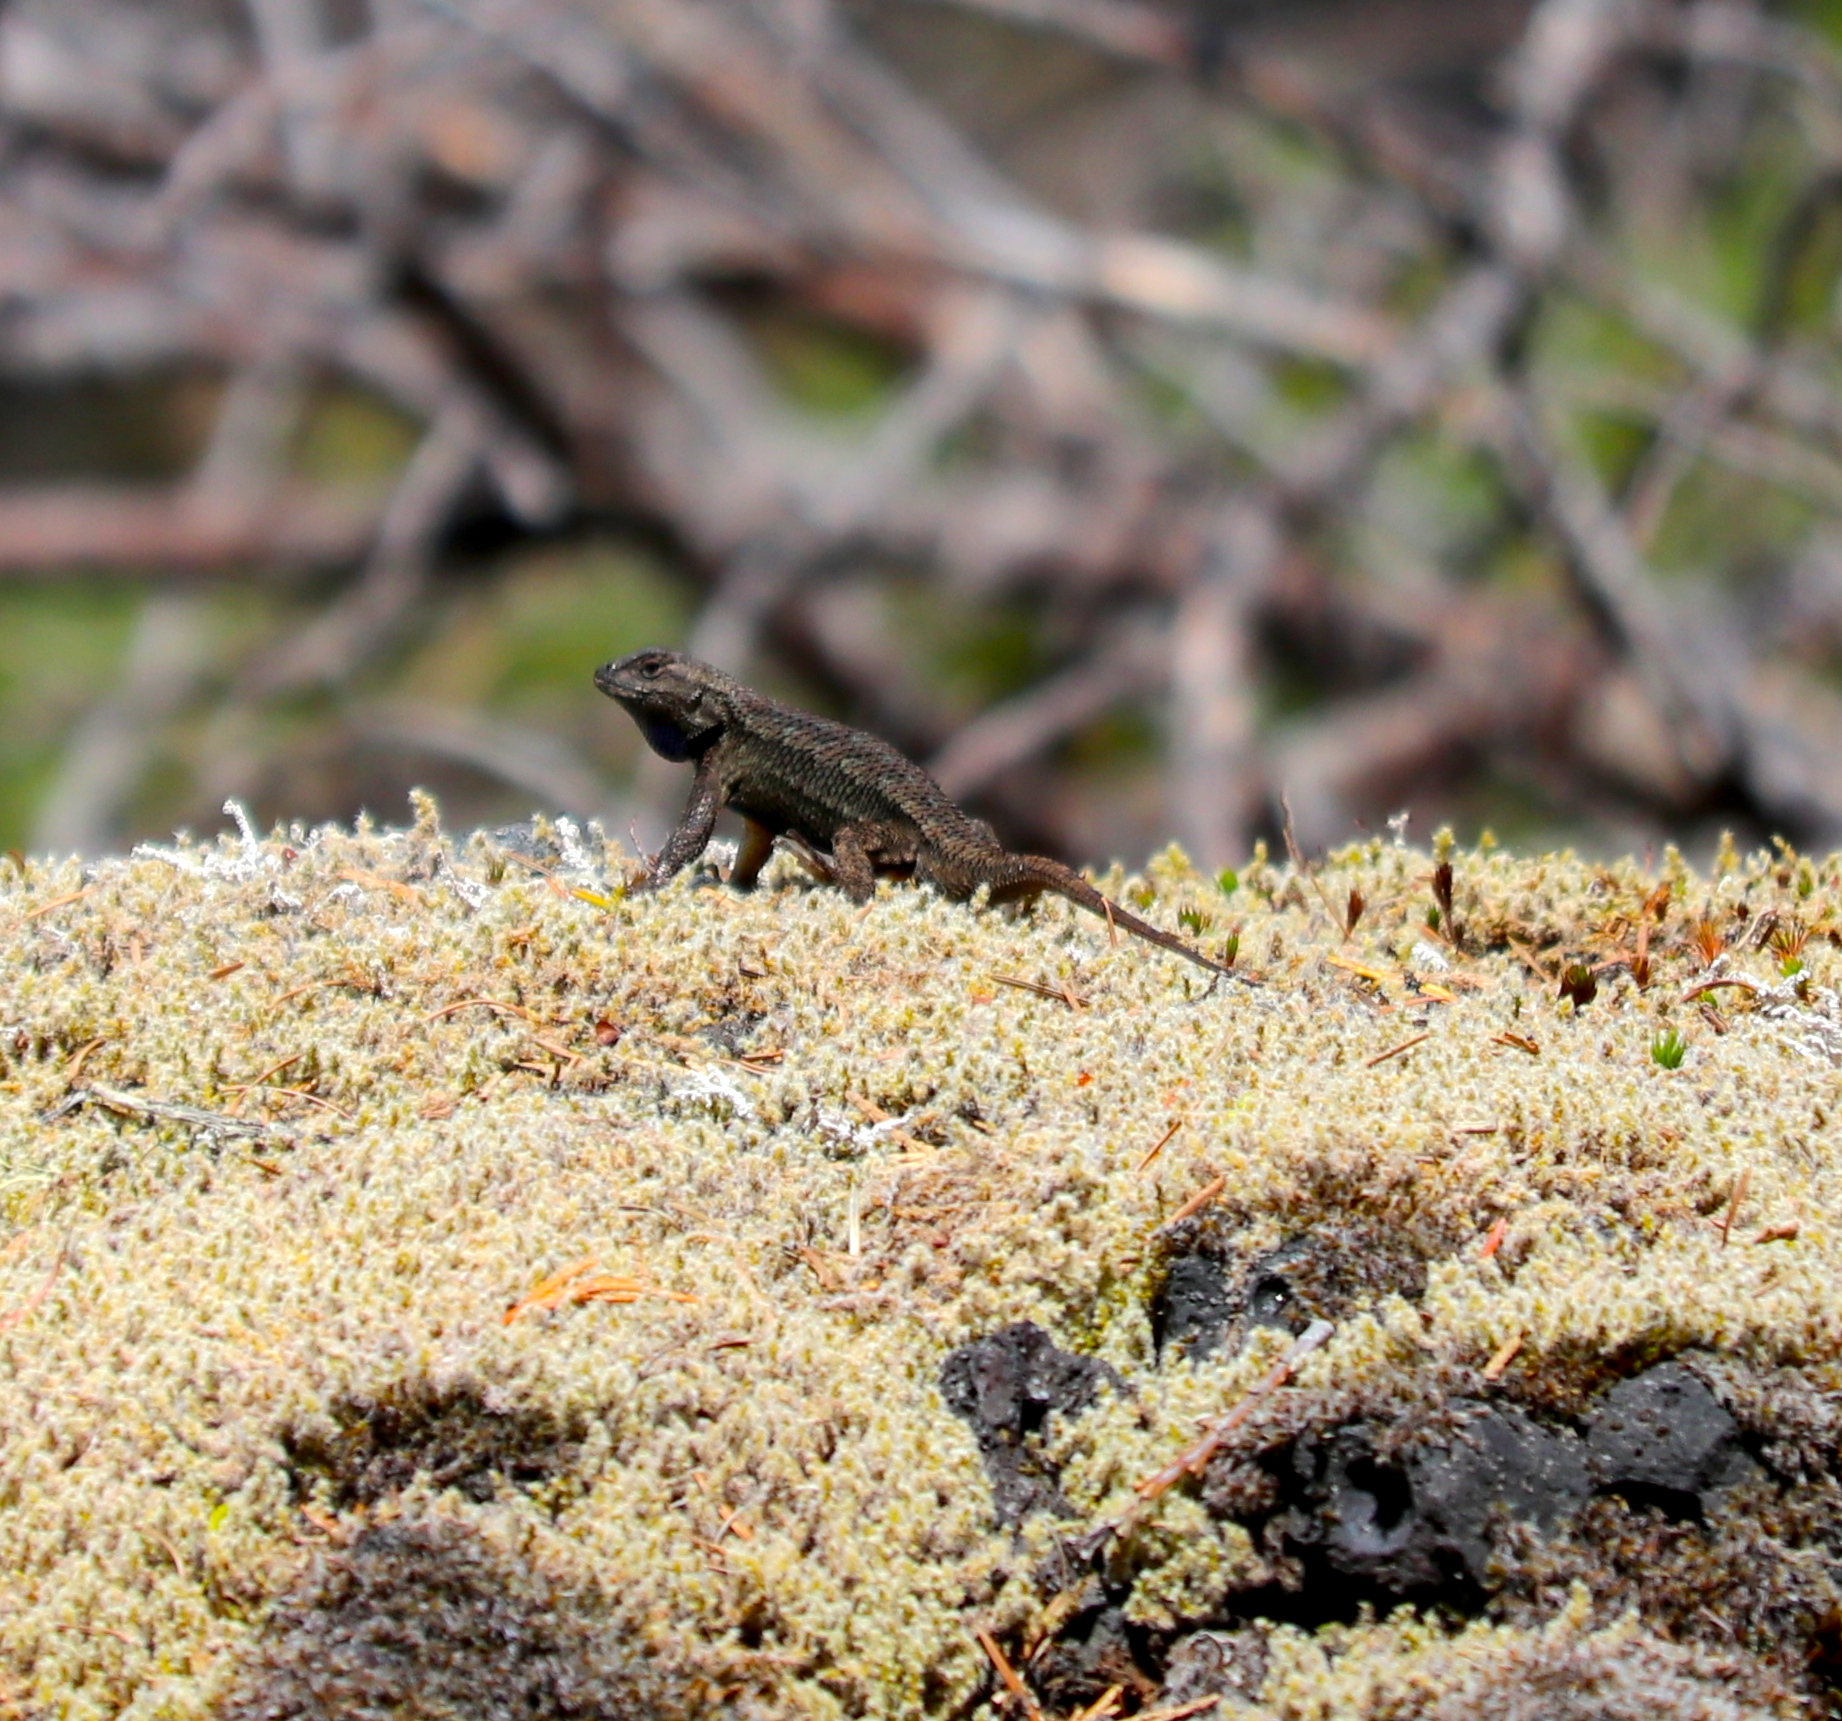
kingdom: Animalia
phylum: Chordata
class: Squamata
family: Phrynosomatidae
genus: Sceloporus
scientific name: Sceloporus occidentalis
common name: Western fence lizard
